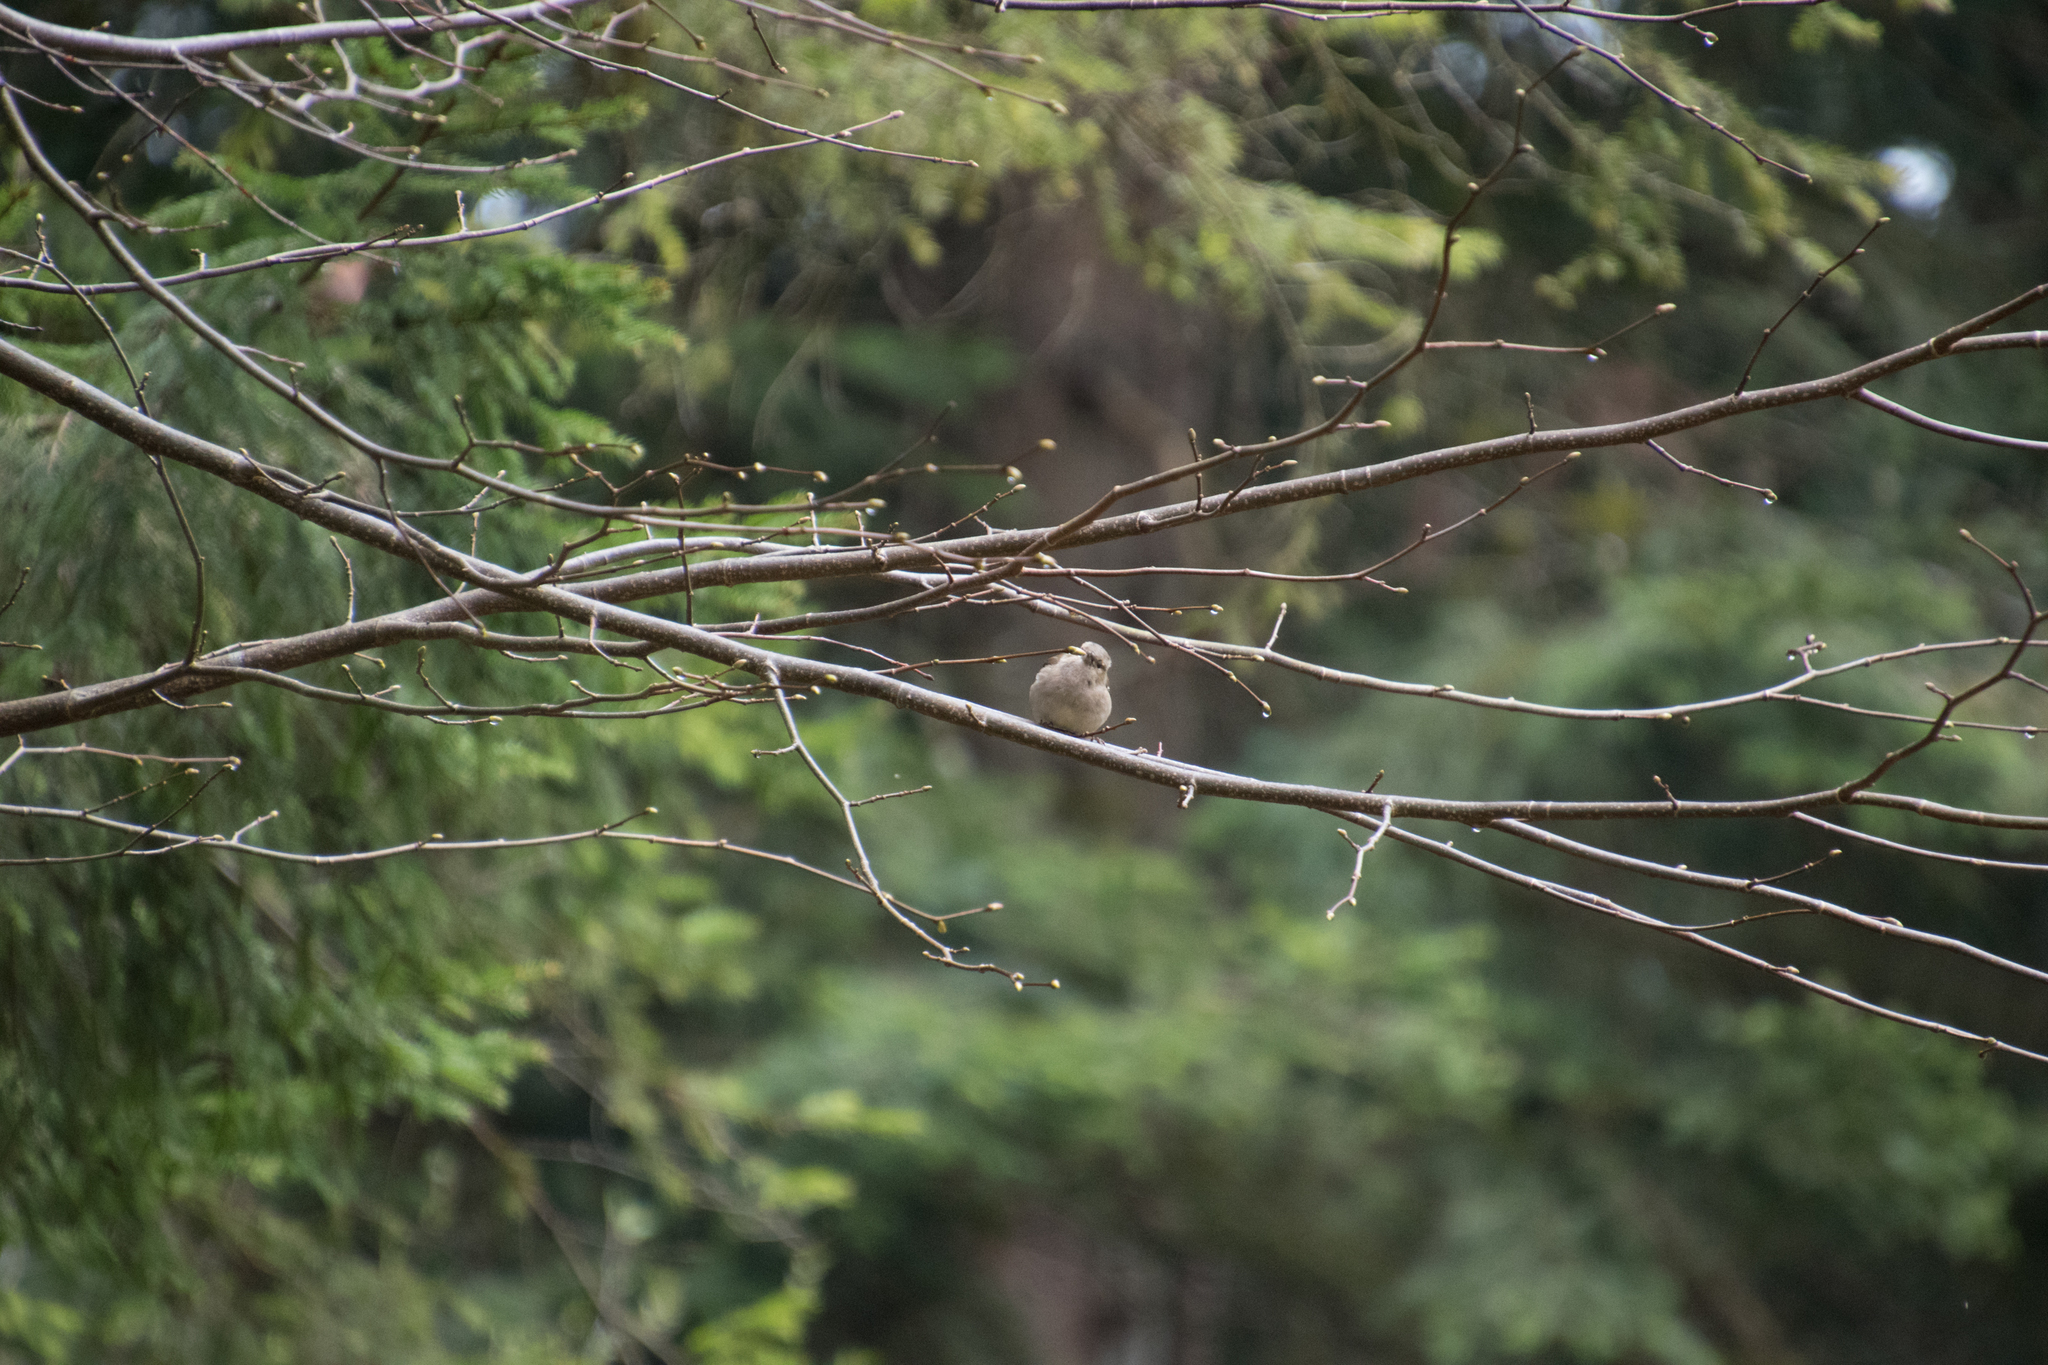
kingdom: Animalia
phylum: Chordata
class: Aves
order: Passeriformes
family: Fringillidae
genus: Fringilla
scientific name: Fringilla coelebs
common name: Common chaffinch
